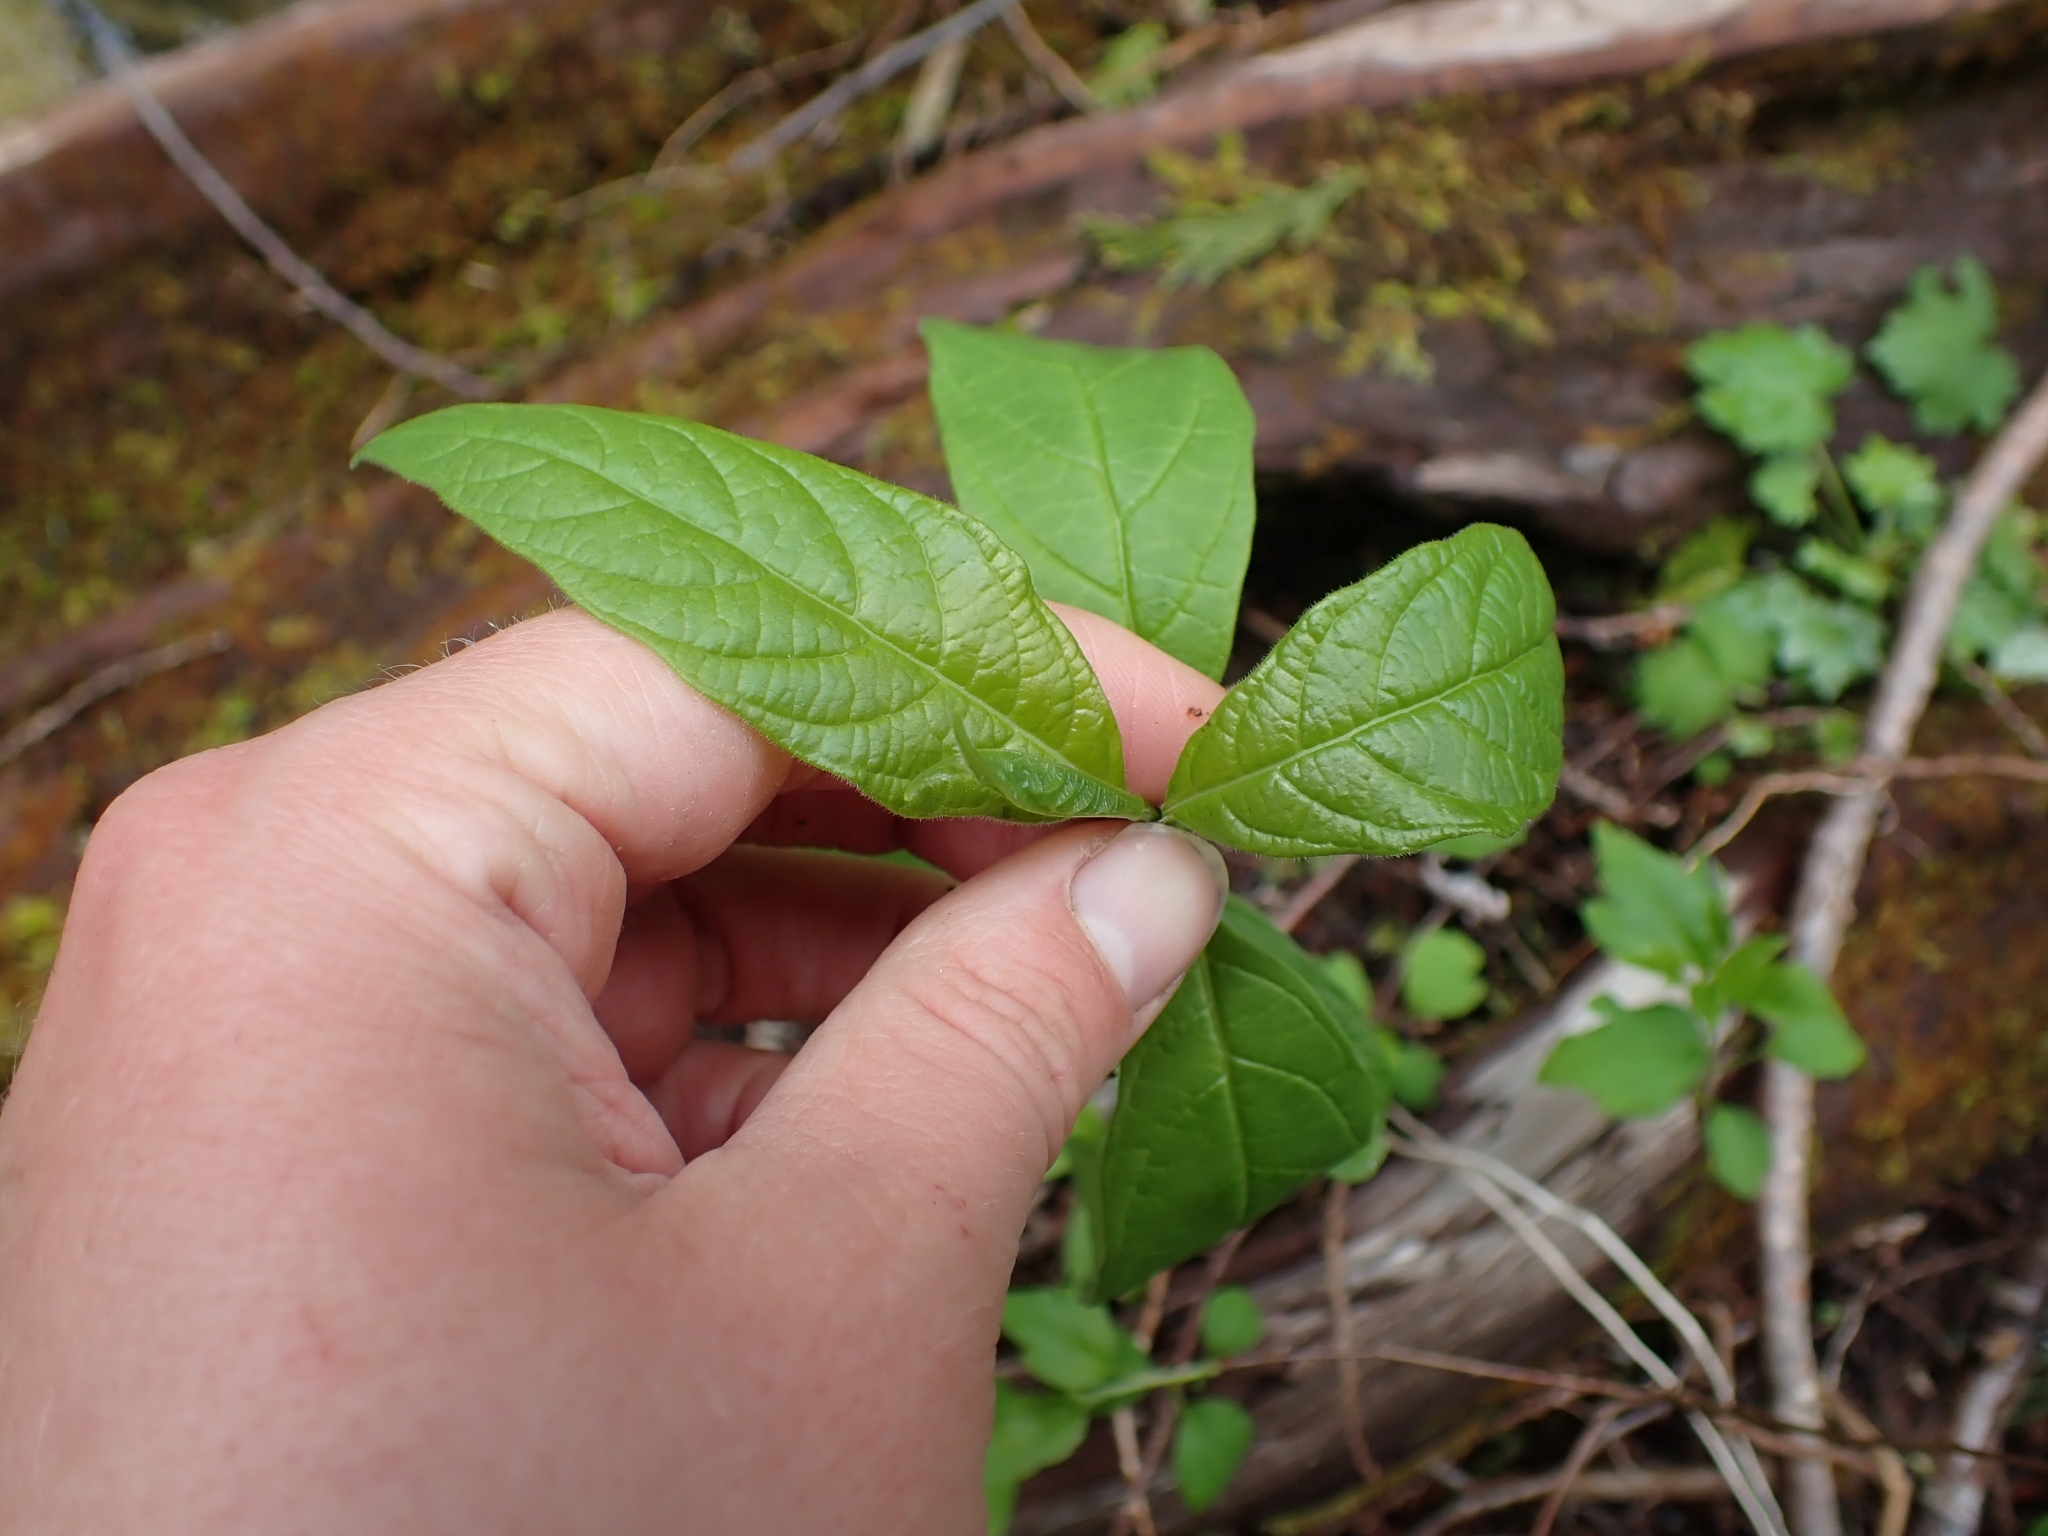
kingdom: Plantae
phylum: Tracheophyta
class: Magnoliopsida
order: Dipsacales
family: Caprifoliaceae
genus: Lonicera
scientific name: Lonicera involucrata
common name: Californian honeysuckle
